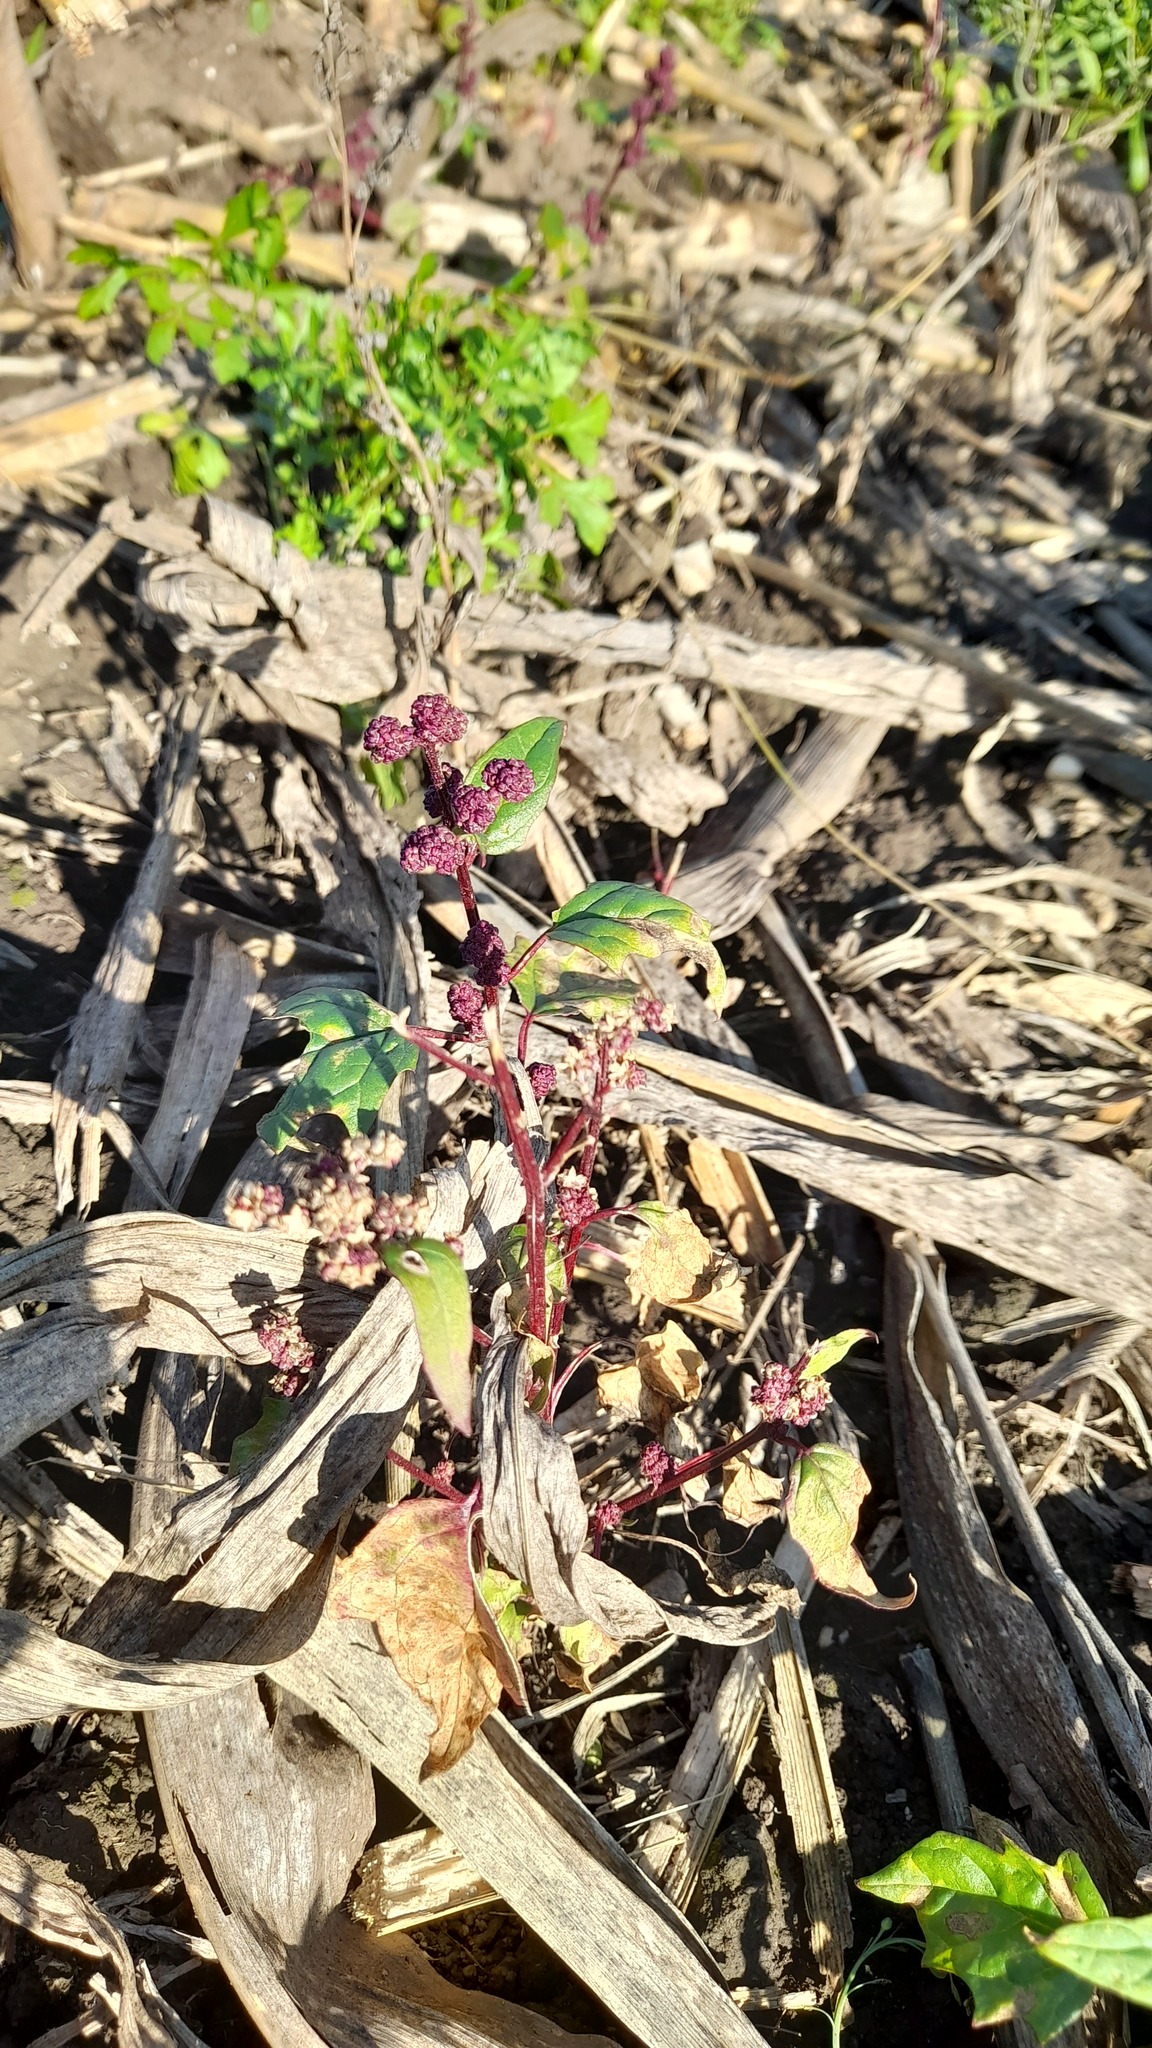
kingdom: Plantae
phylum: Tracheophyta
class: Magnoliopsida
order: Caryophyllales
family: Amaranthaceae
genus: Chenopodiastrum
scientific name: Chenopodiastrum hybridum
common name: Mapleleaf goosefoot
